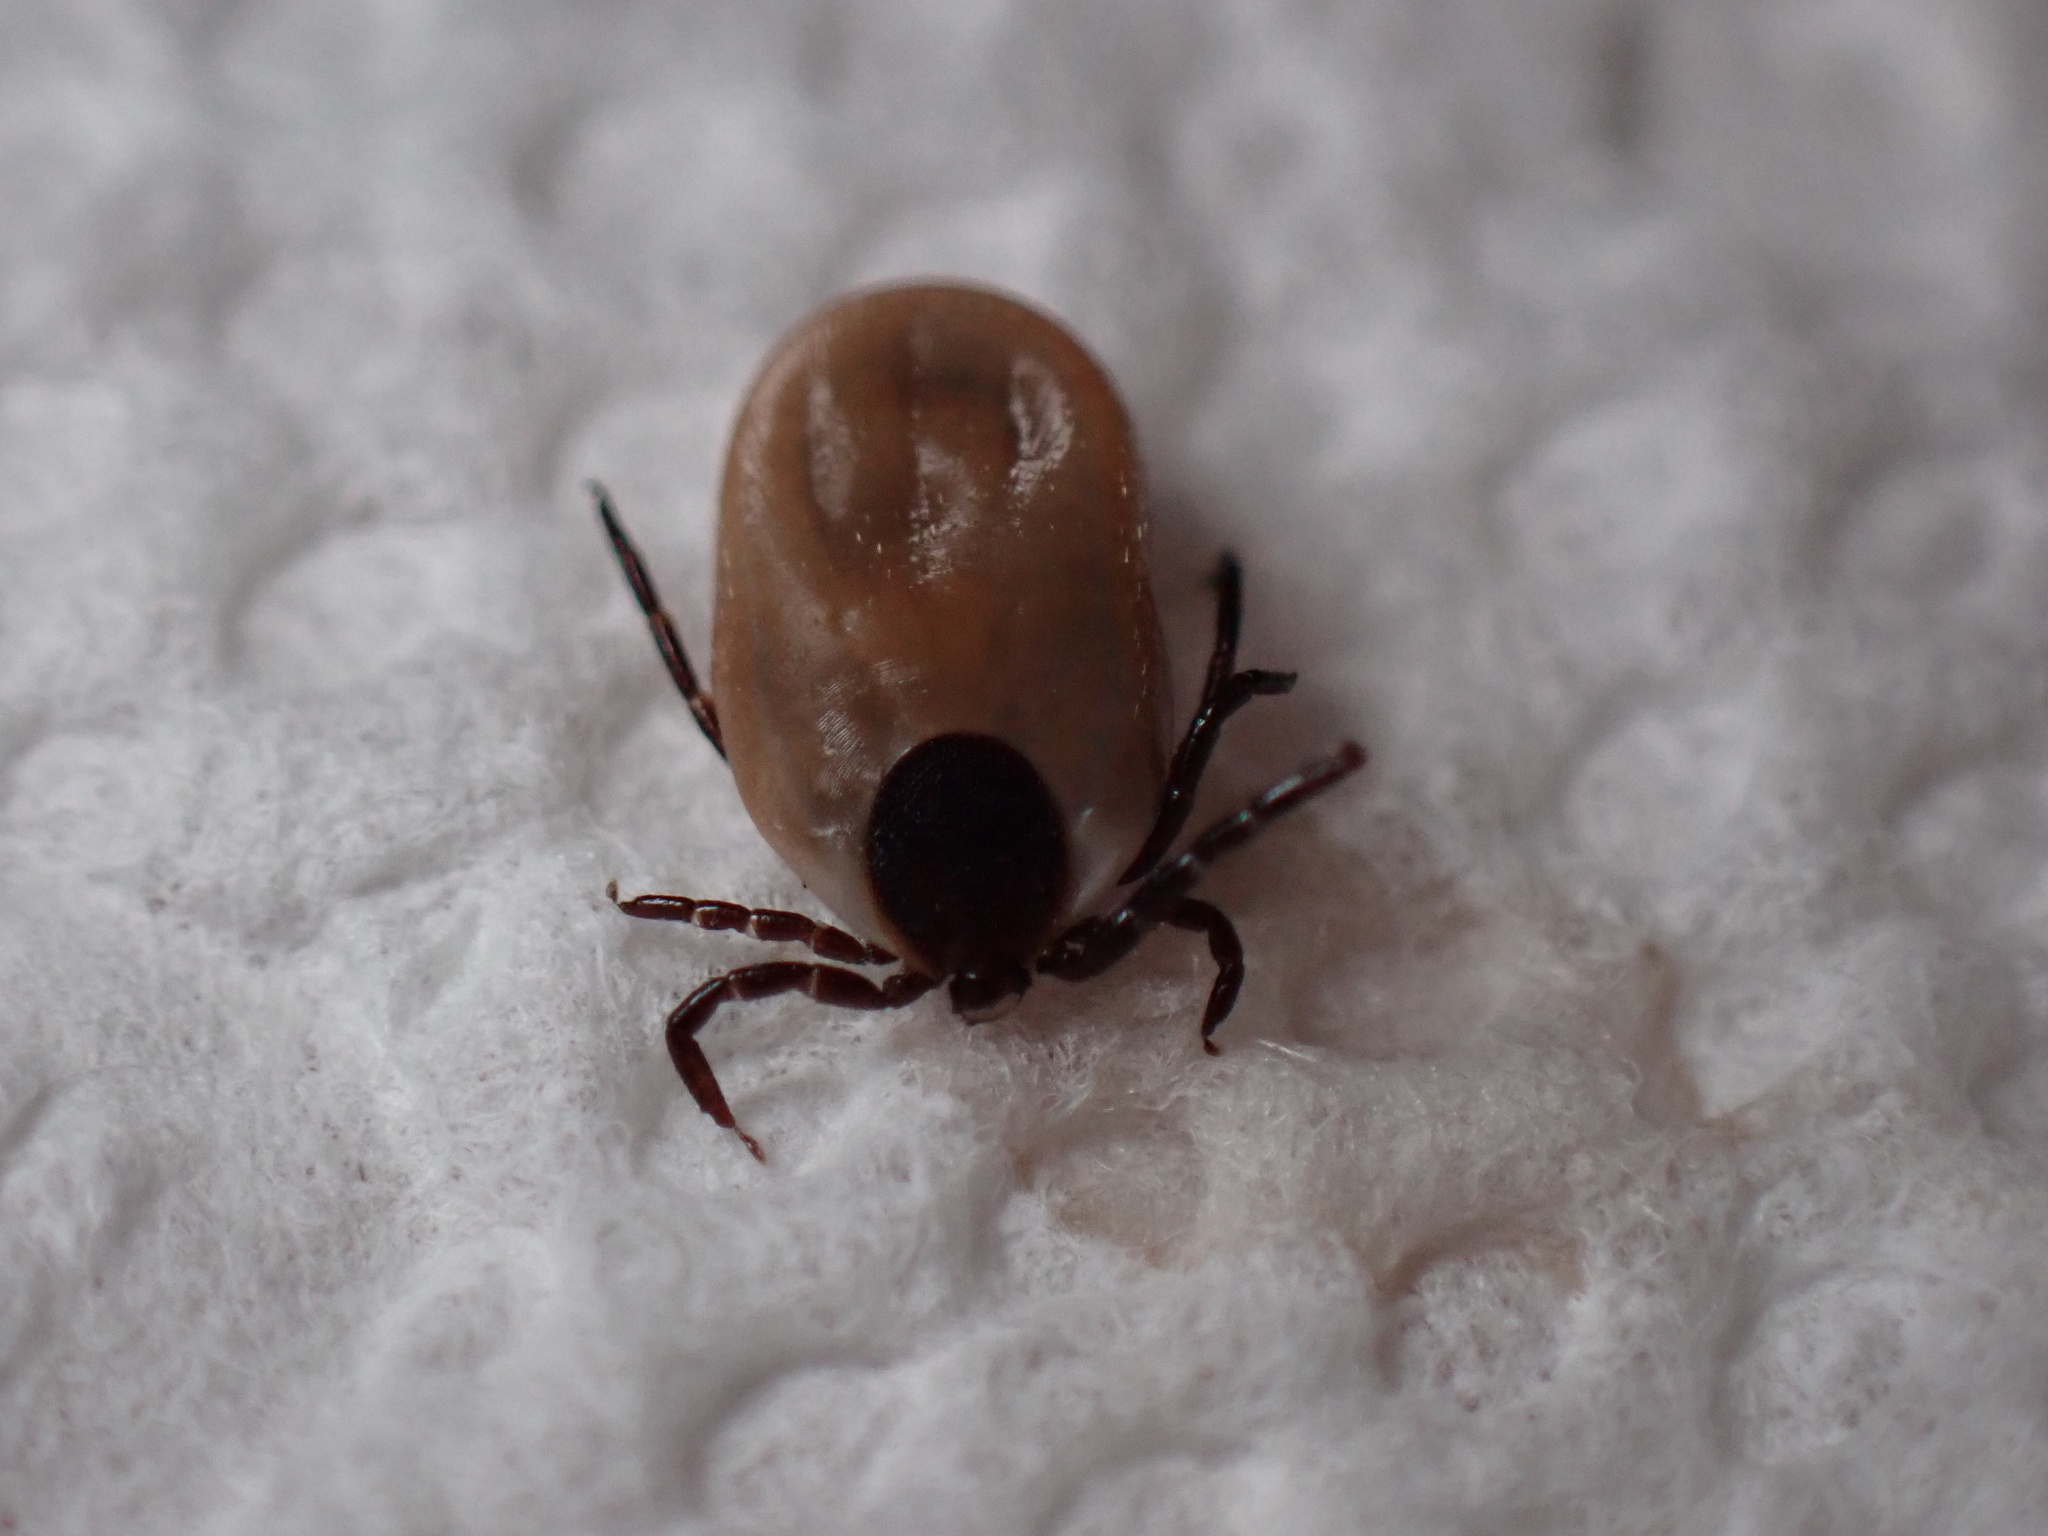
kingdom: Animalia
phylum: Arthropoda
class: Arachnida
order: Ixodida
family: Ixodidae
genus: Ixodes
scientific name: Ixodes scapularis
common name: Black legged tick
